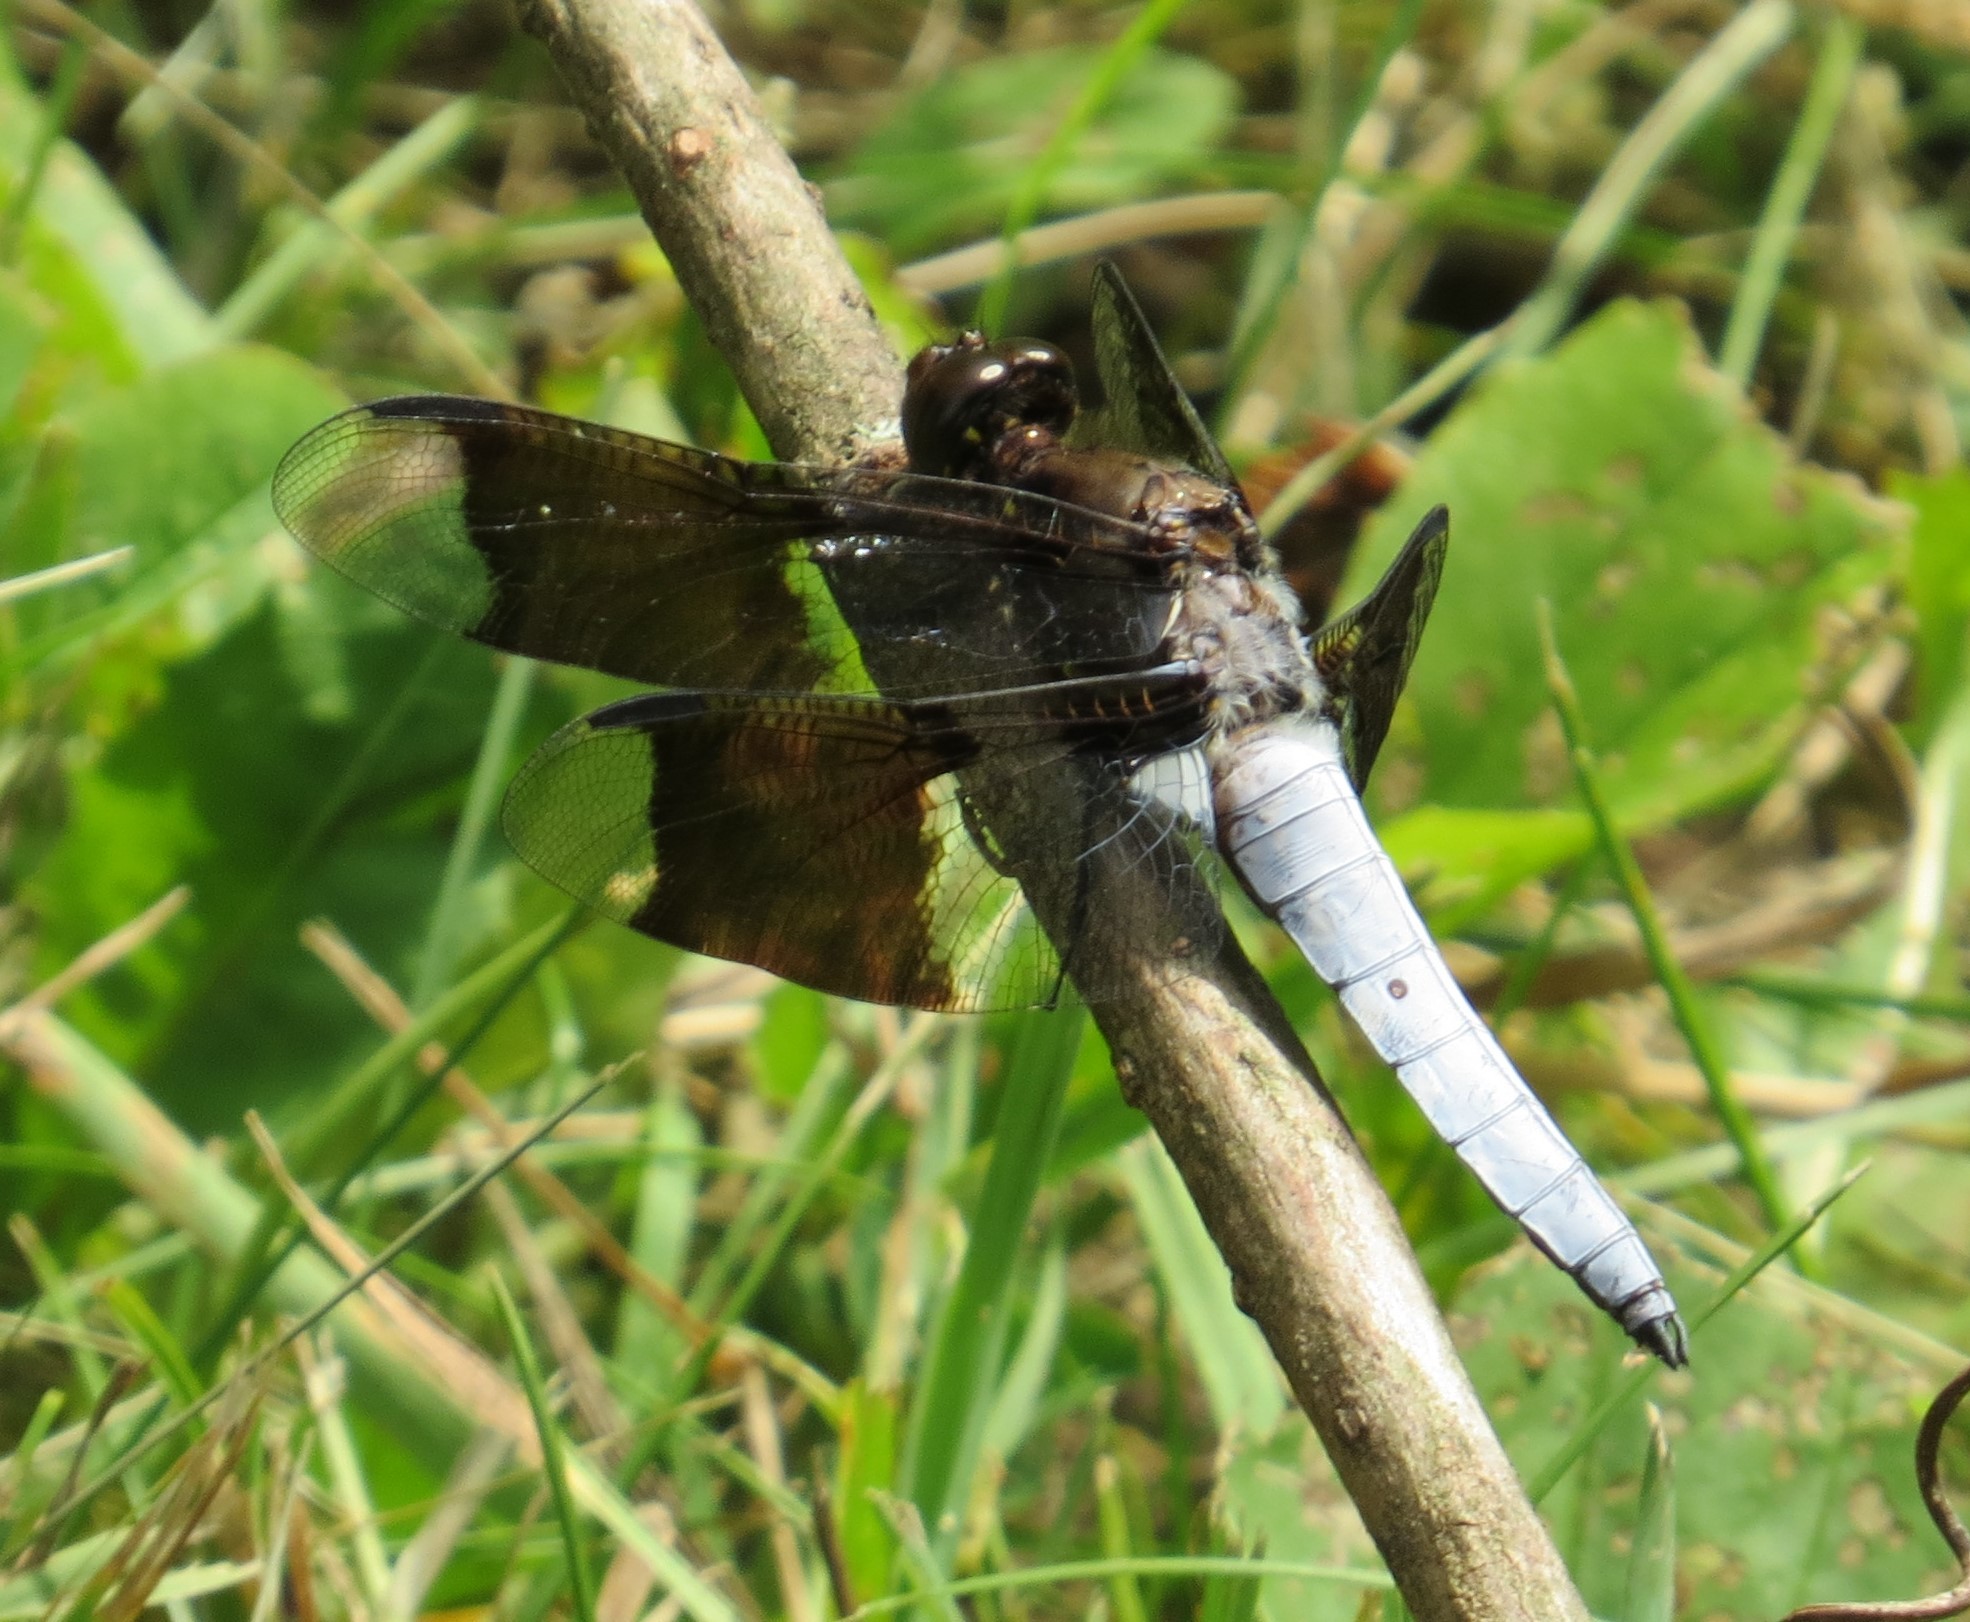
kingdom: Animalia
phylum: Arthropoda
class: Insecta
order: Odonata
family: Libellulidae
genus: Plathemis
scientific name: Plathemis lydia
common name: Common whitetail
